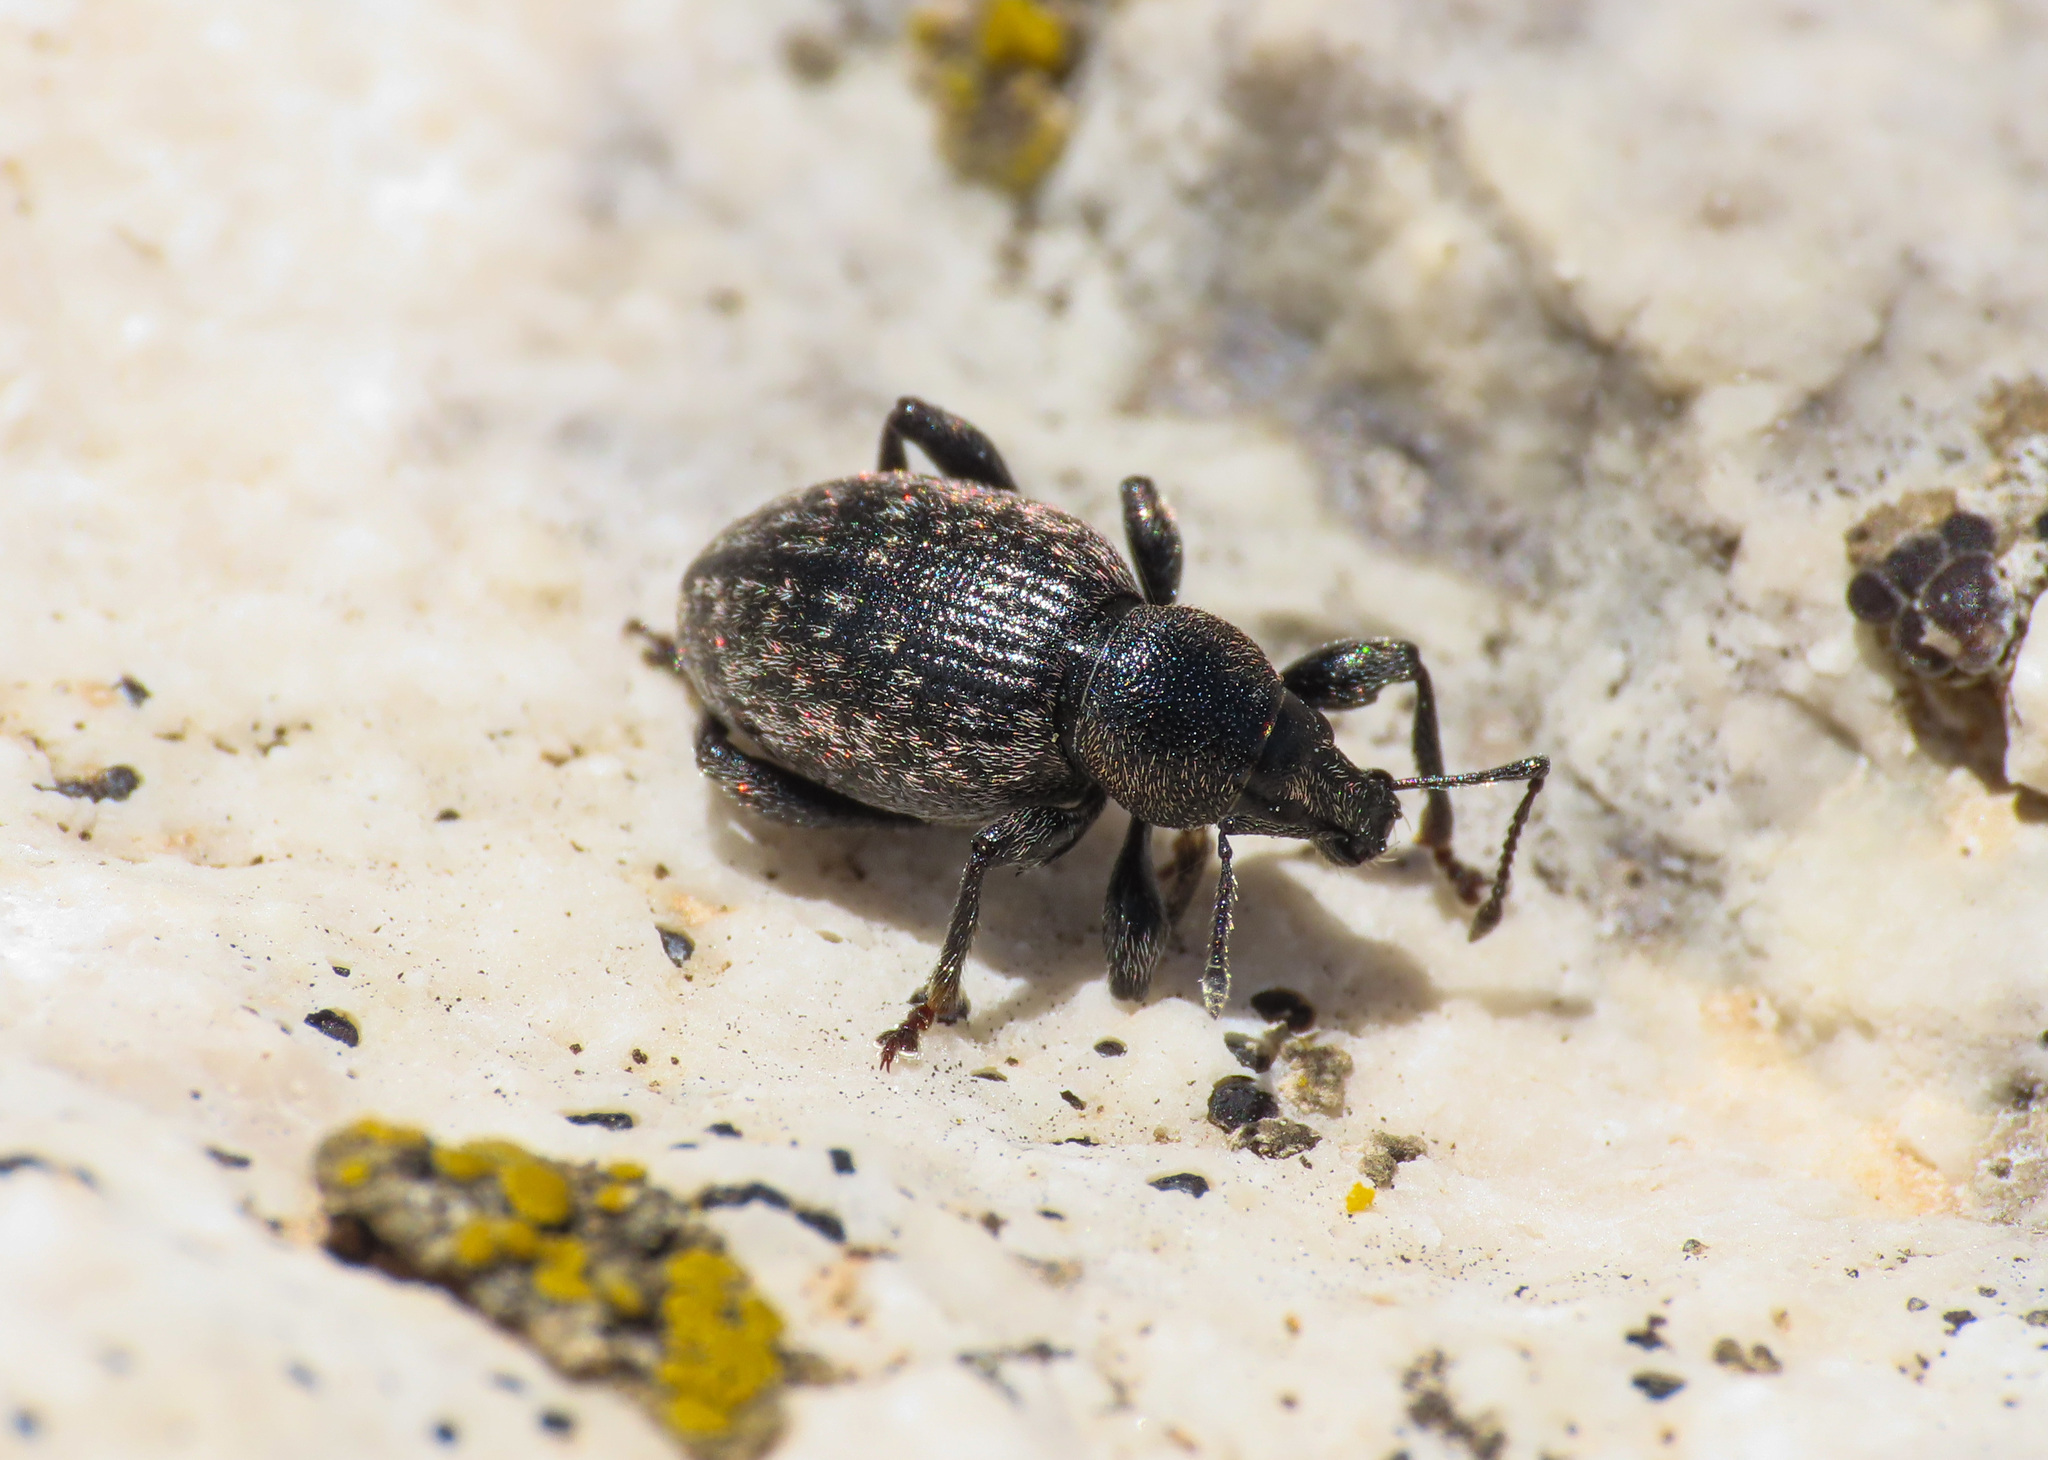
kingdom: Animalia
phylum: Arthropoda
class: Insecta
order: Coleoptera
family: Curculionidae
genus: Otiorhynchus
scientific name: Otiorhynchus alpicola
